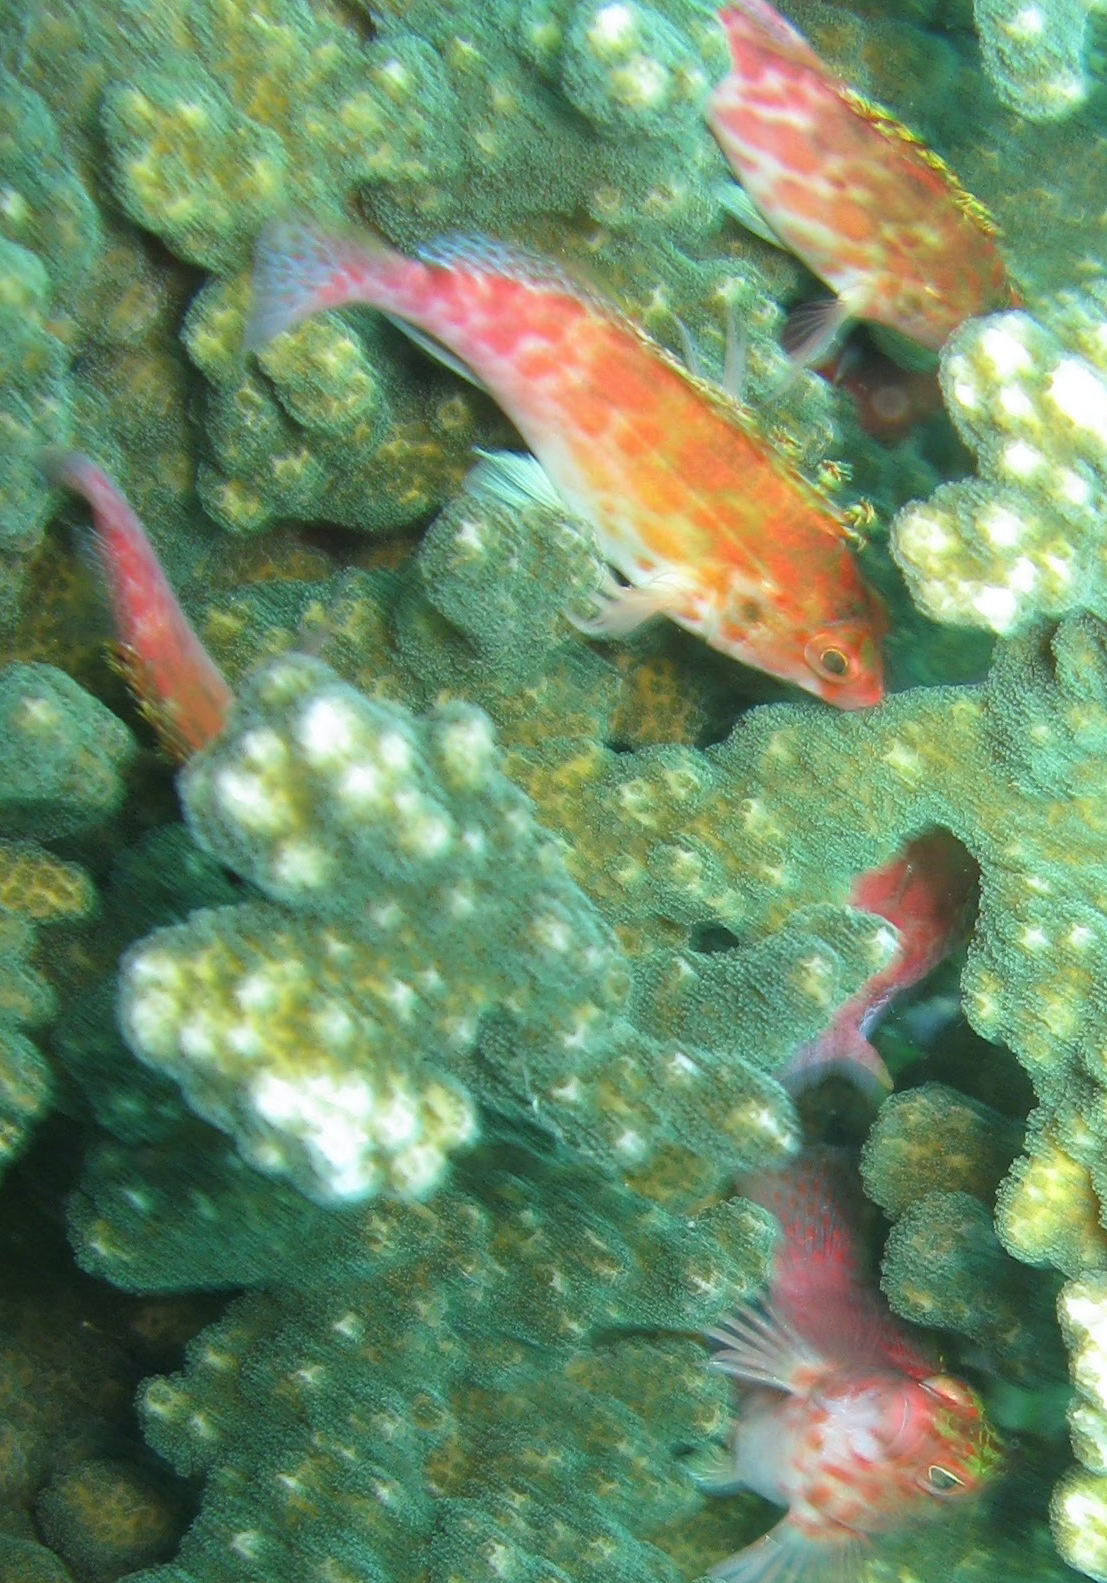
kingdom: Animalia
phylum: Chordata
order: Perciformes
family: Cirrhitidae
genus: Cirrhitichthys
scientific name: Cirrhitichthys oxycephalus
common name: Spotted hawkfish
